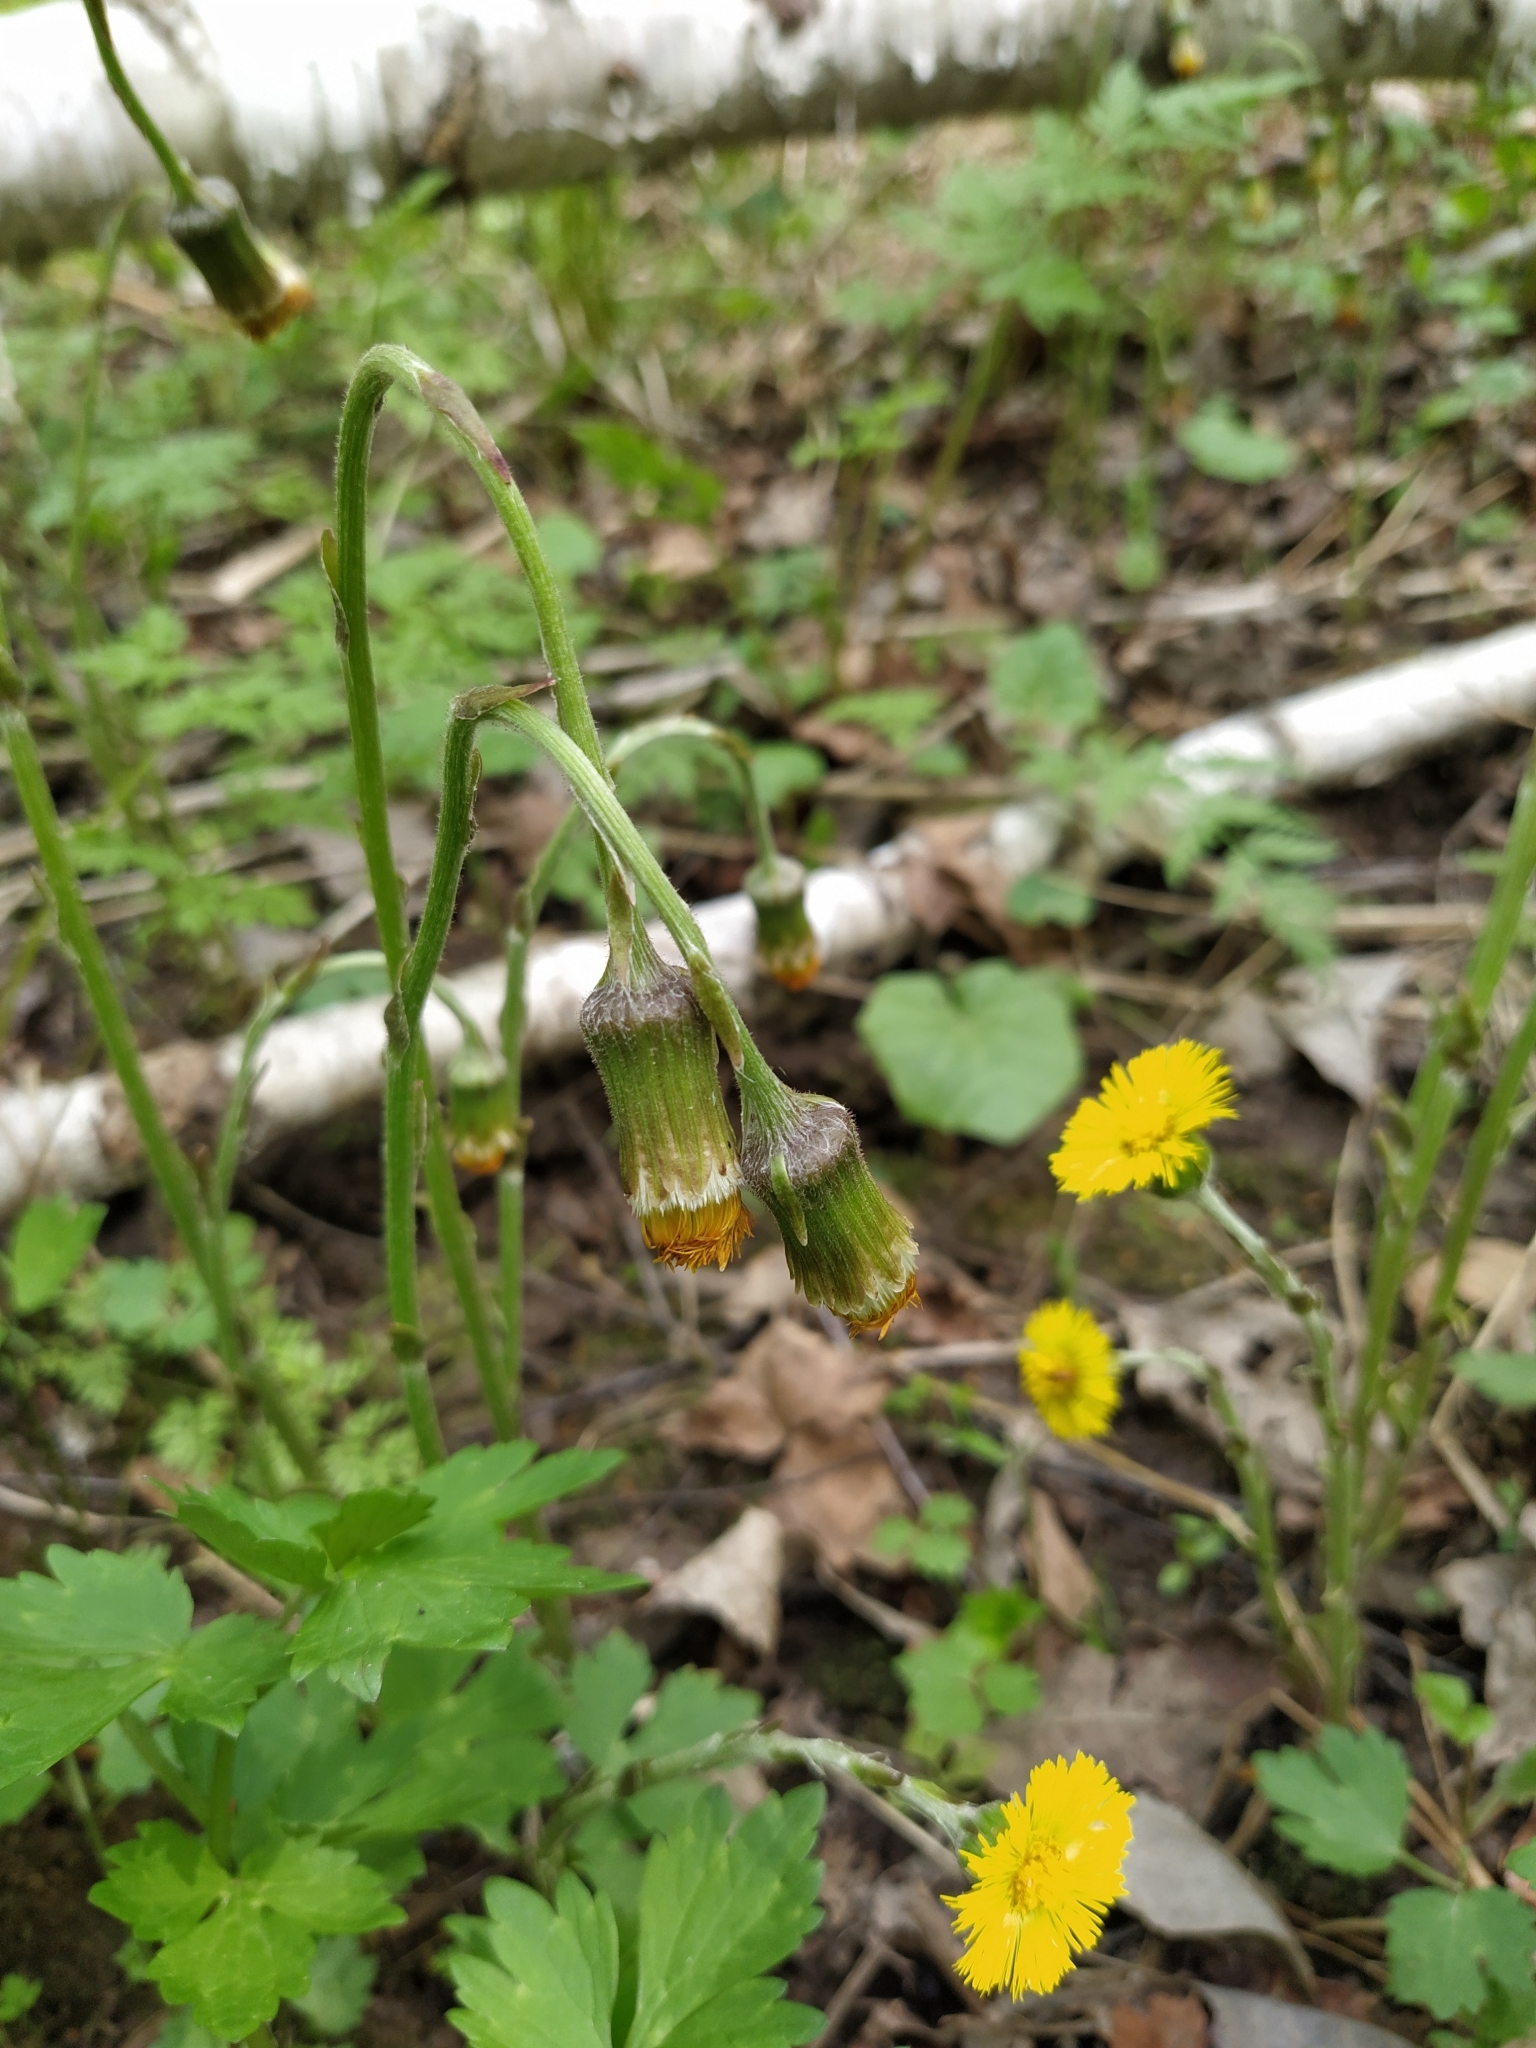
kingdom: Plantae
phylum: Tracheophyta
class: Magnoliopsida
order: Asterales
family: Asteraceae
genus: Tussilago
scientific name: Tussilago farfara
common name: Coltsfoot
